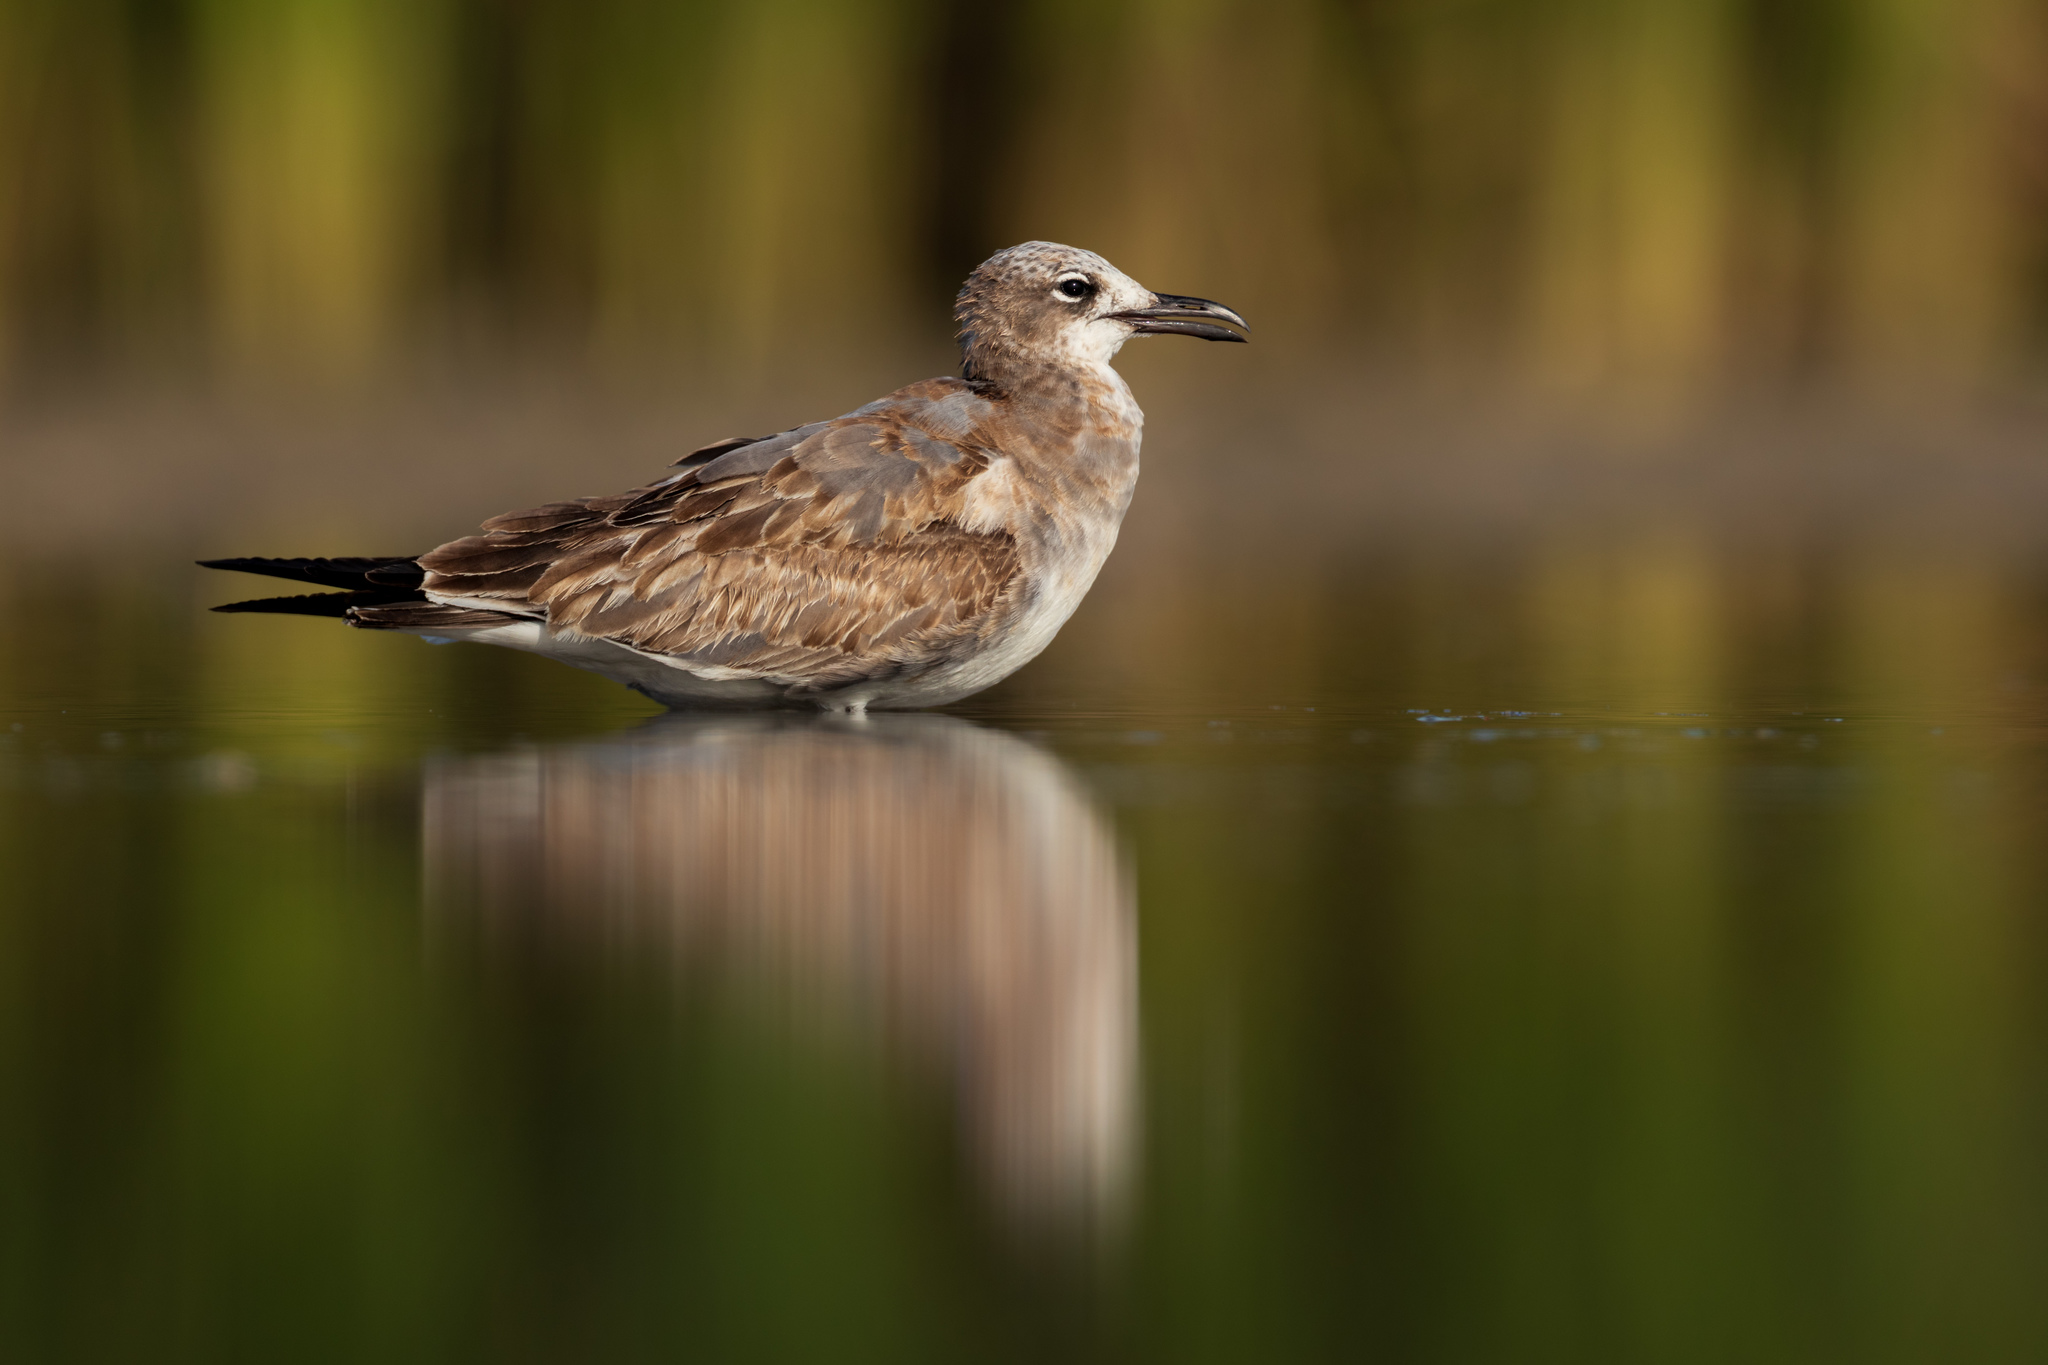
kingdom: Animalia
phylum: Chordata
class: Aves
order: Charadriiformes
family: Laridae
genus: Leucophaeus
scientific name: Leucophaeus atricilla
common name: Laughing gull
